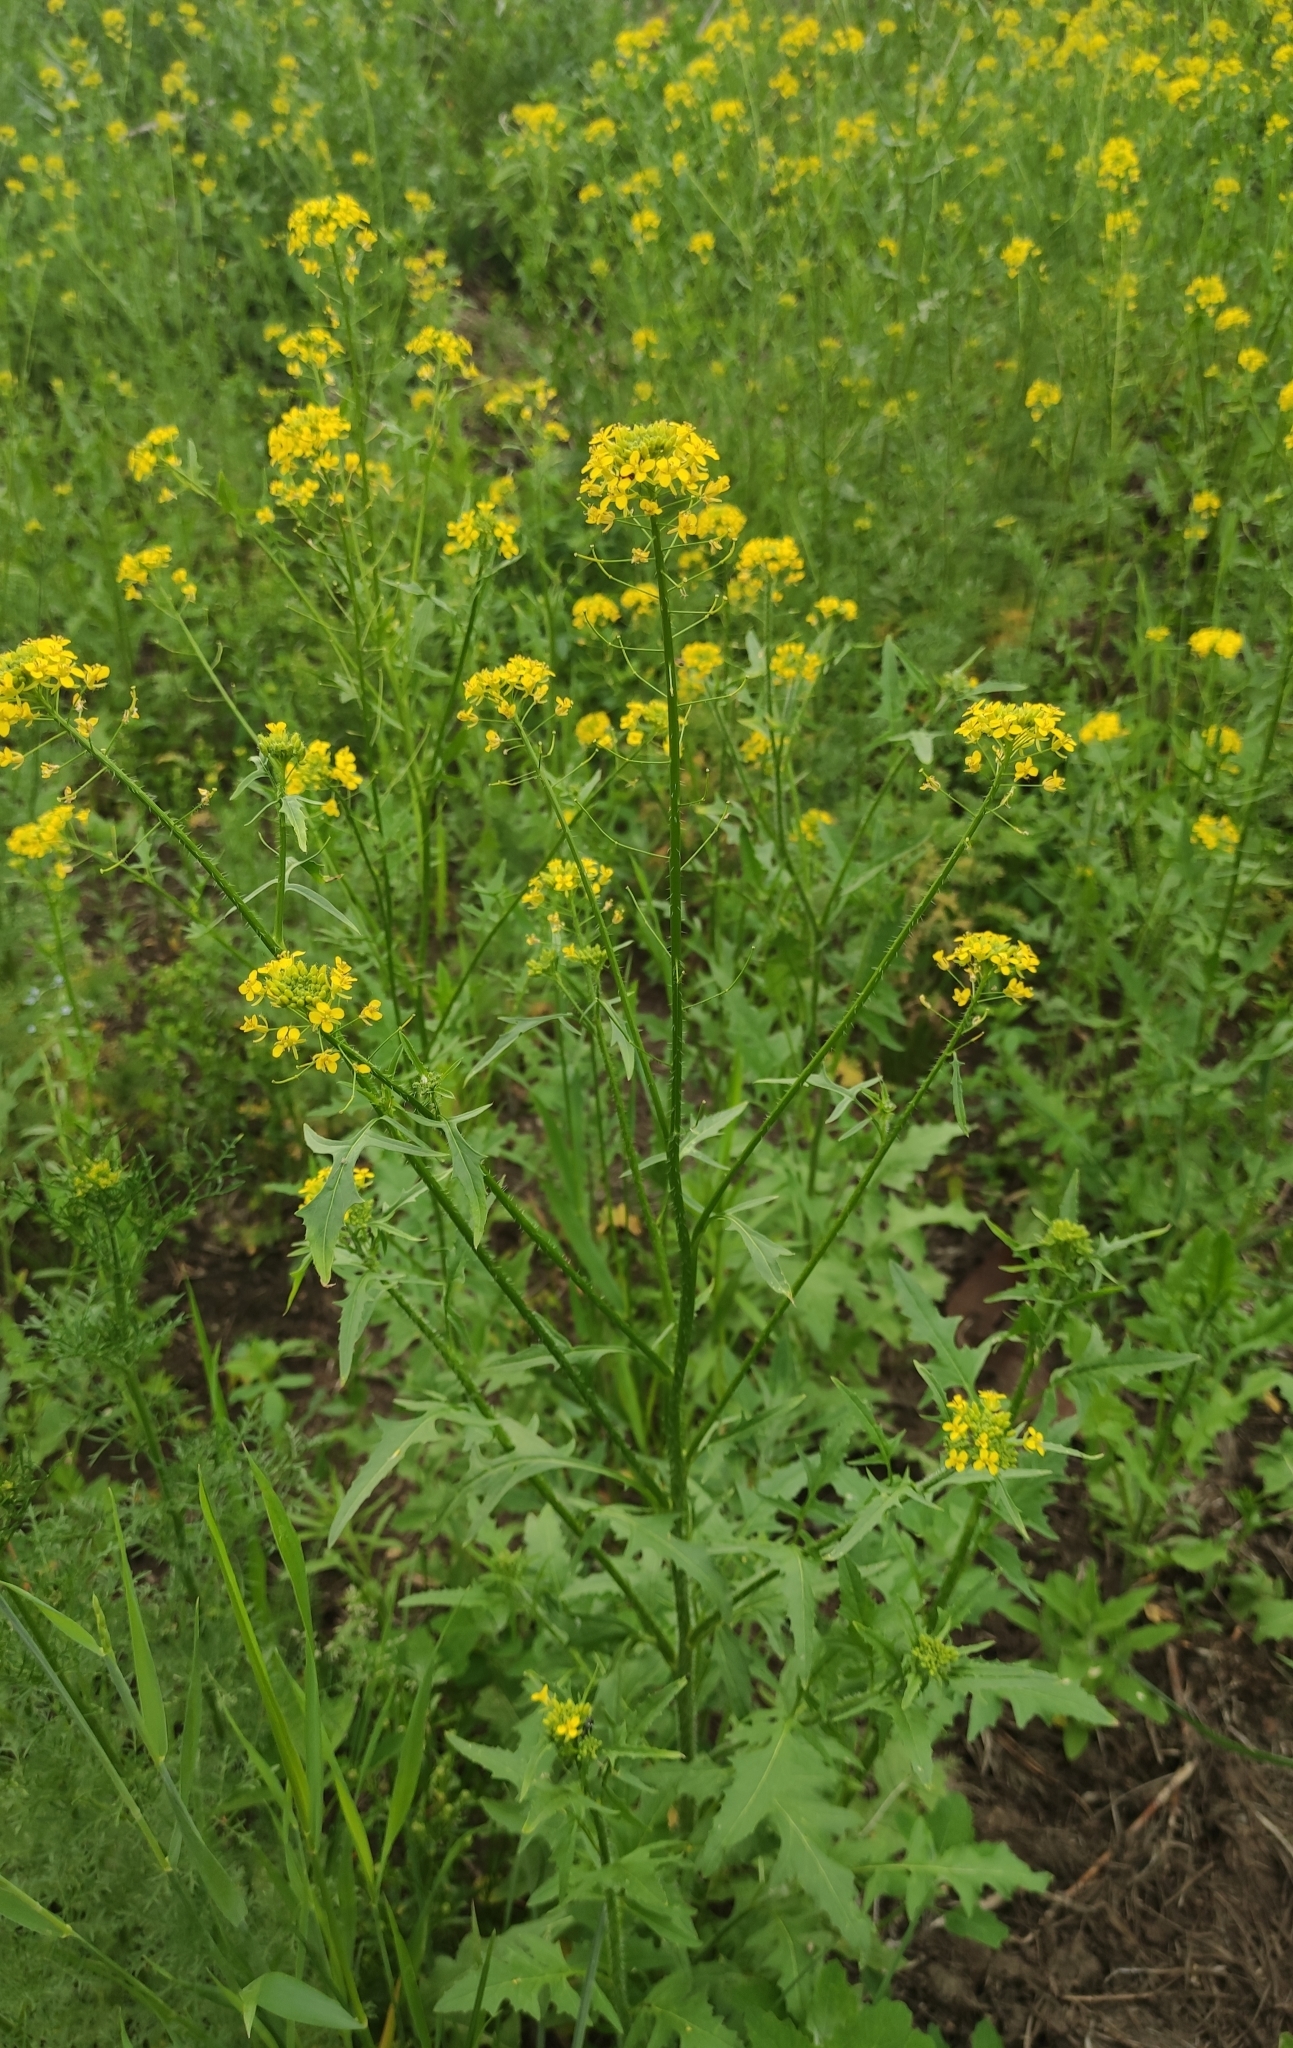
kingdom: Plantae
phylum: Tracheophyta
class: Magnoliopsida
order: Brassicales
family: Brassicaceae
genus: Sisymbrium
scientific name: Sisymbrium loeselii
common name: False london-rocket
